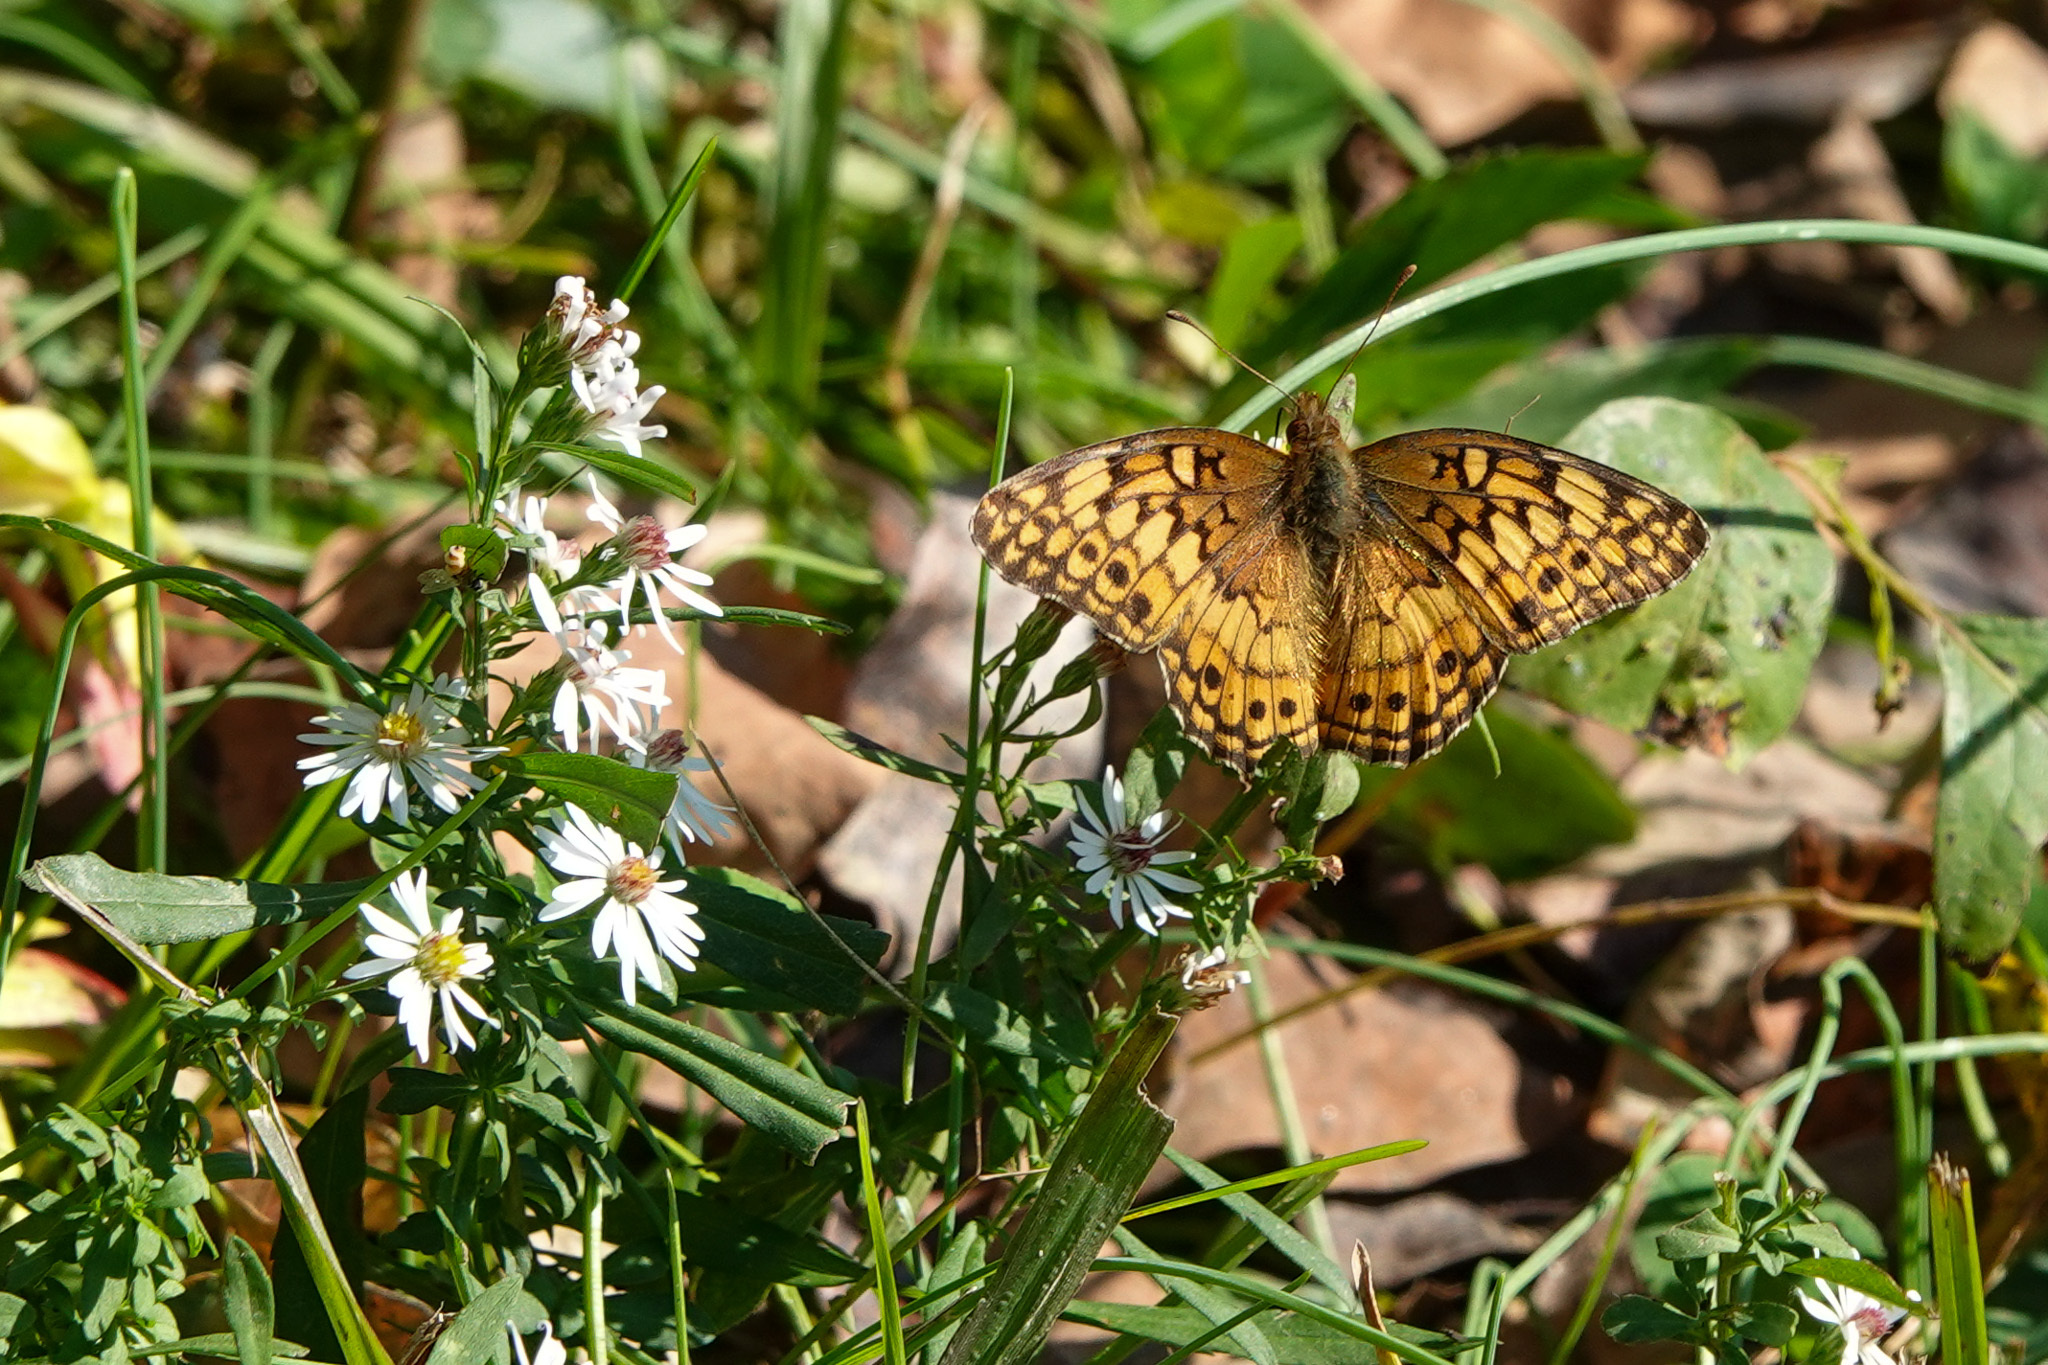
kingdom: Animalia
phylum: Arthropoda
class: Insecta
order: Lepidoptera
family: Nymphalidae
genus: Euptoieta
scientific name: Euptoieta claudia
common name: Variegated fritillary
